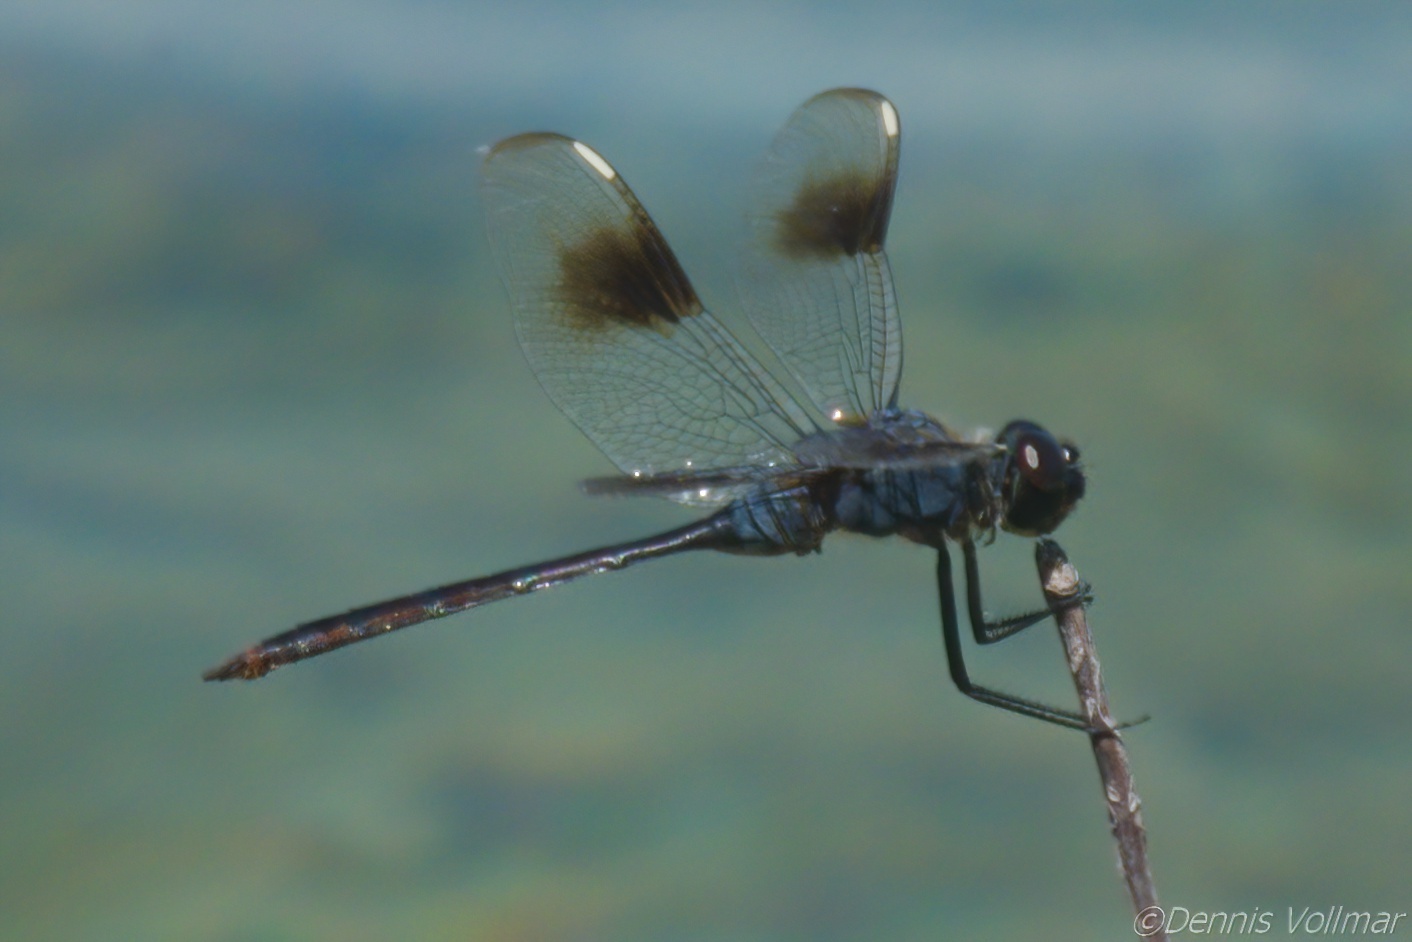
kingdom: Animalia
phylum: Arthropoda
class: Insecta
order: Odonata
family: Libellulidae
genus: Brachymesia
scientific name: Brachymesia gravida
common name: Four-spotted pennant
